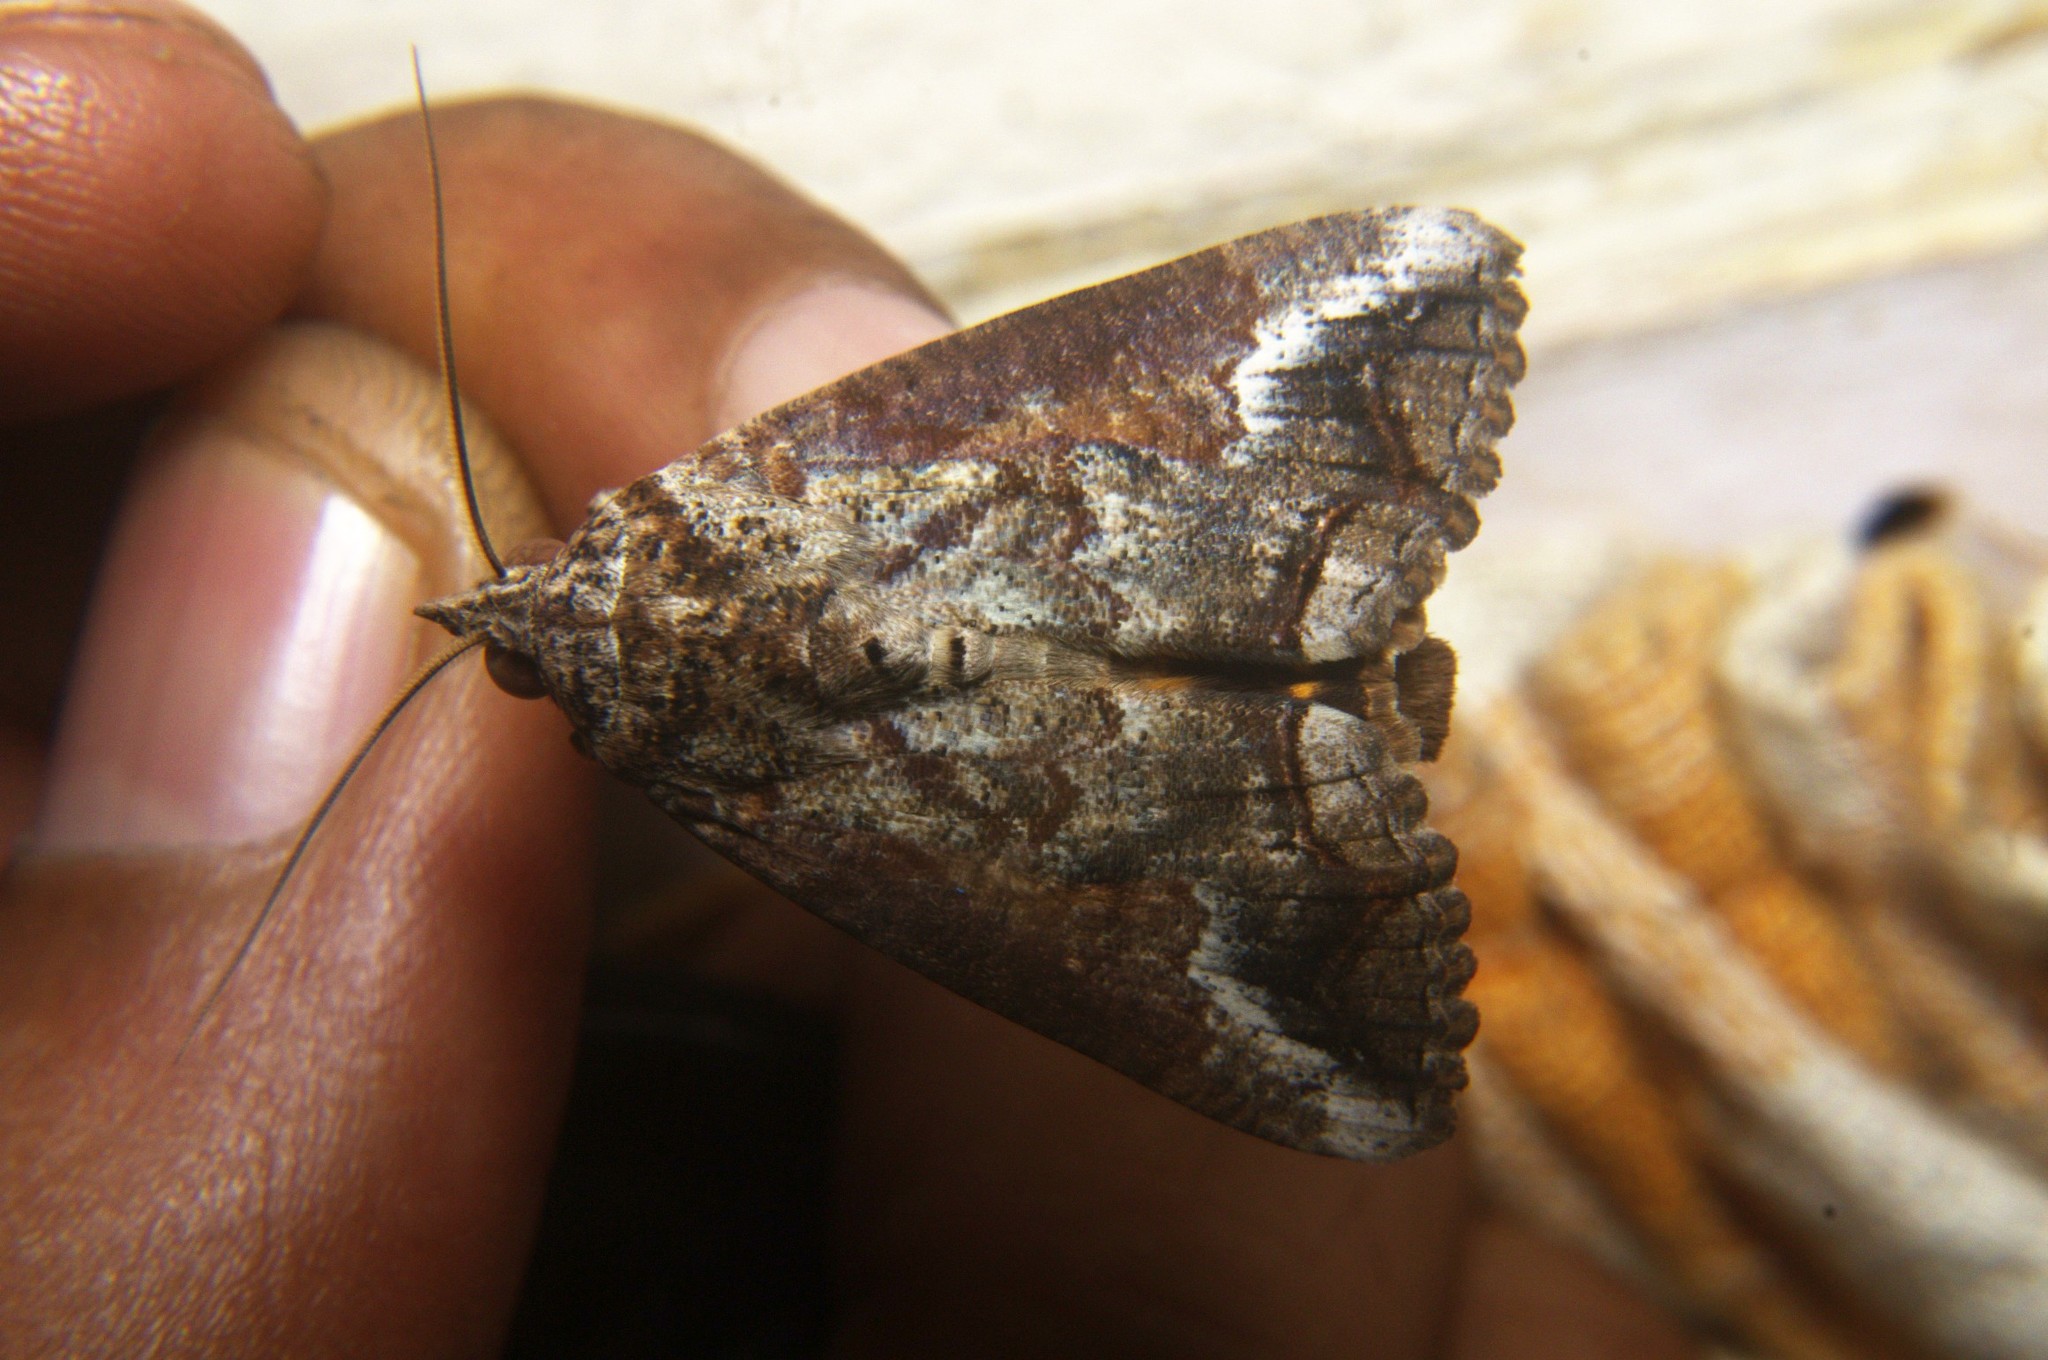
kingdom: Animalia
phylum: Arthropoda
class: Insecta
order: Lepidoptera
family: Erebidae
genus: Hypocala
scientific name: Hypocala deflorata
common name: Moth
